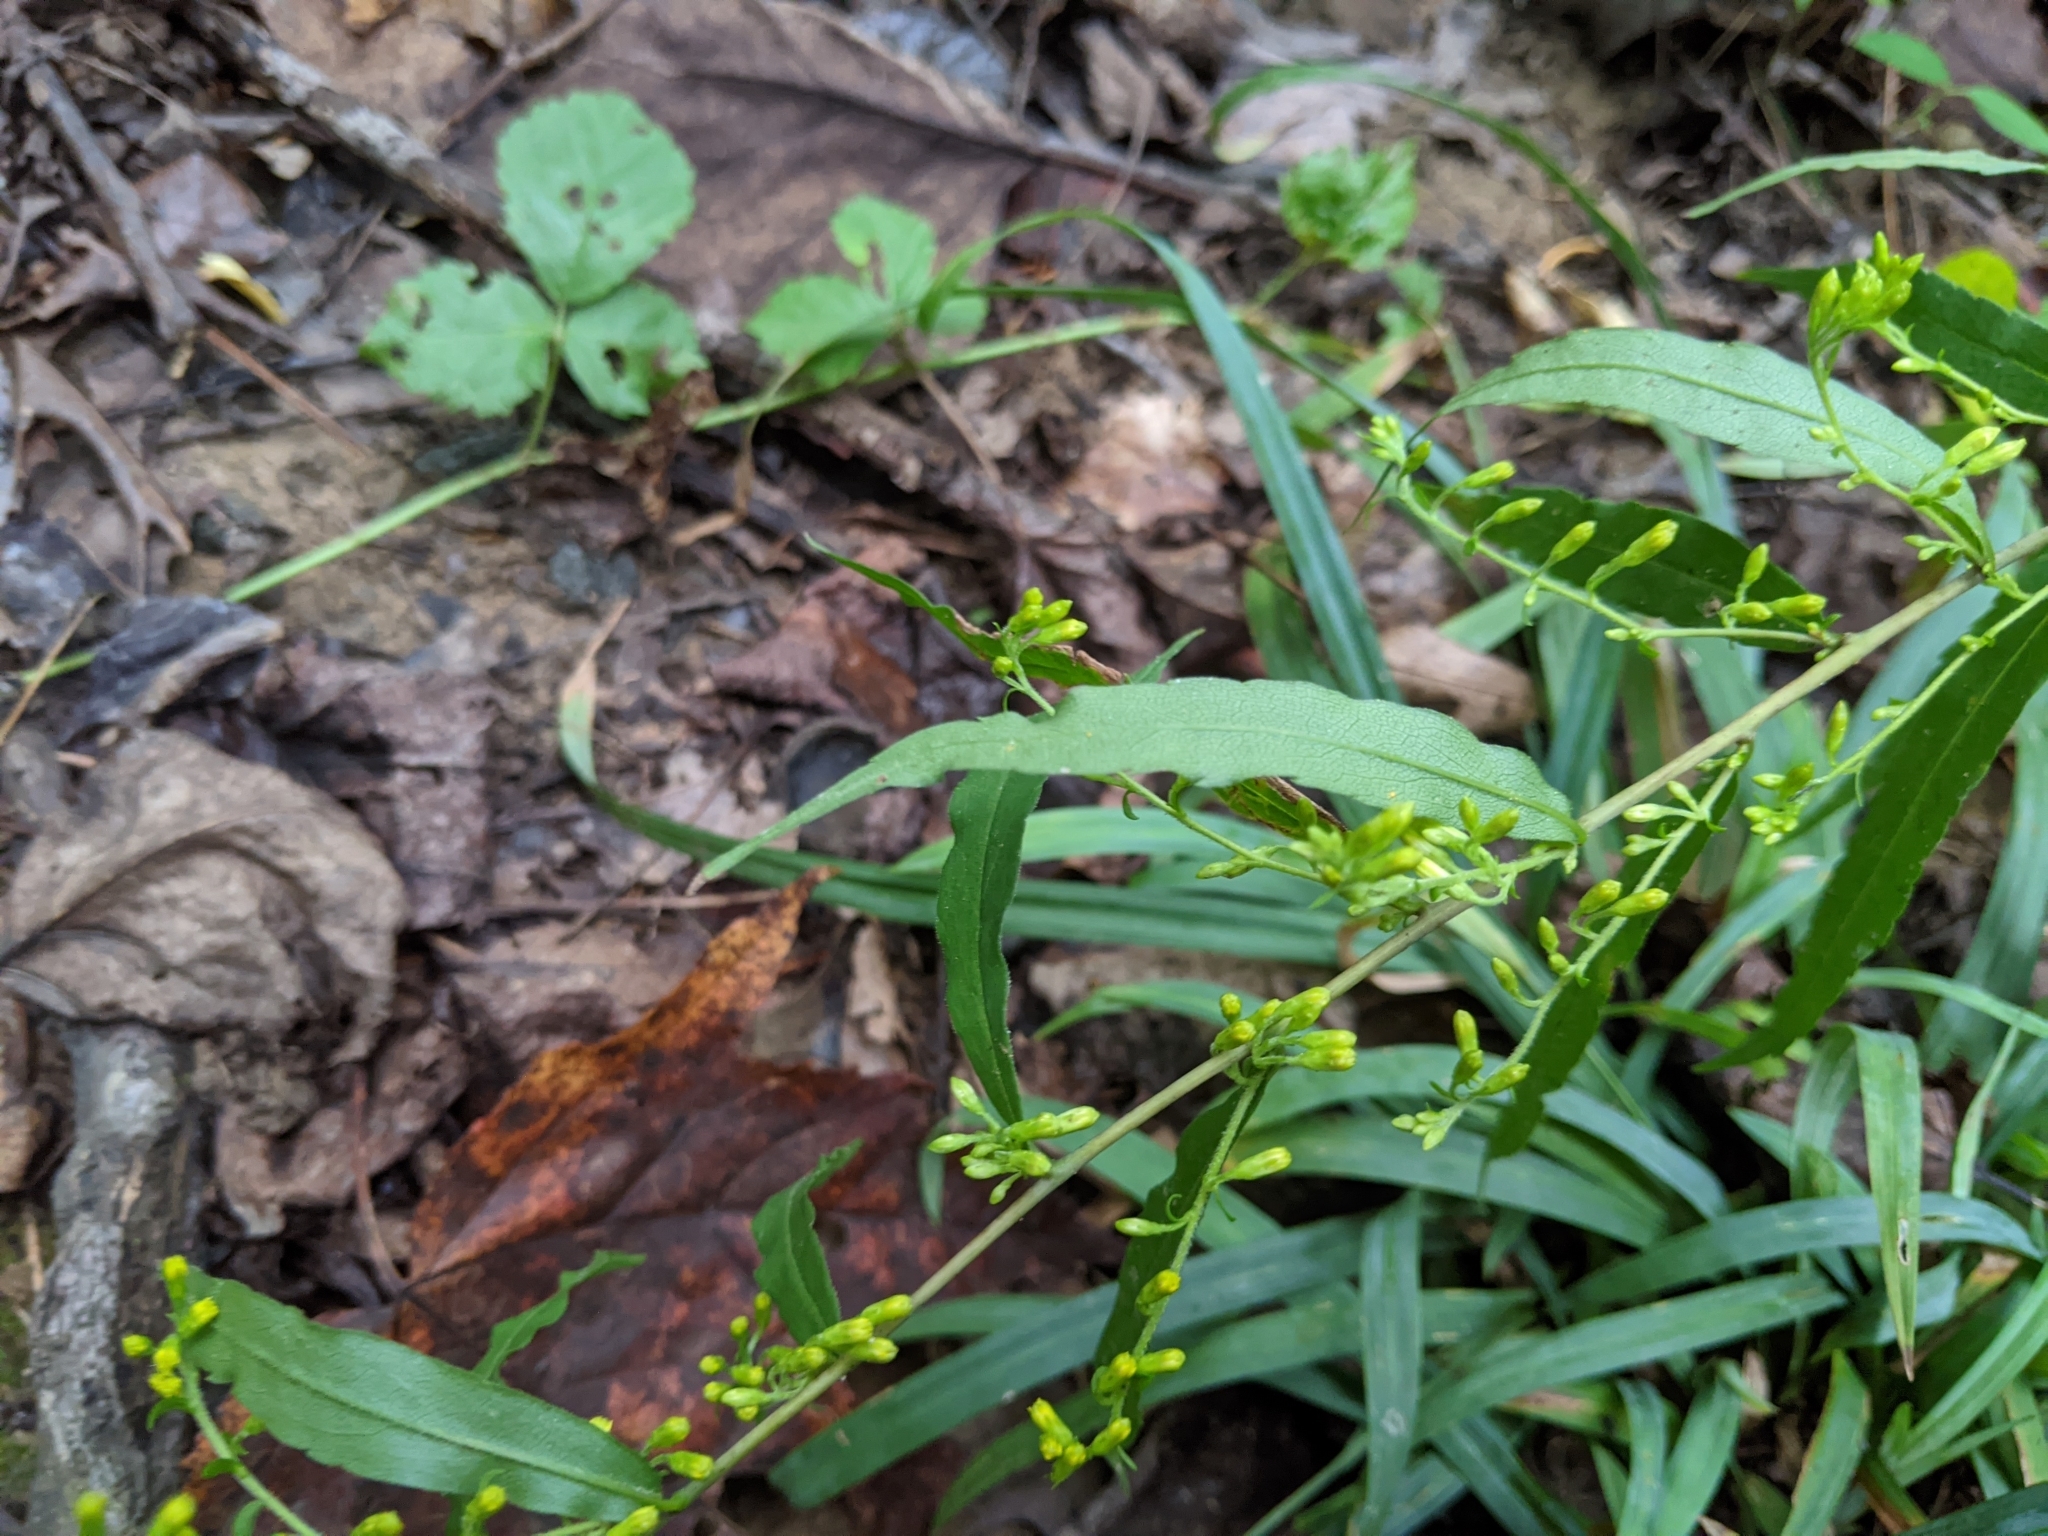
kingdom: Plantae
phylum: Tracheophyta
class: Magnoliopsida
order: Asterales
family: Asteraceae
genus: Solidago
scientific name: Solidago caesia
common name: Woodland goldenrod
